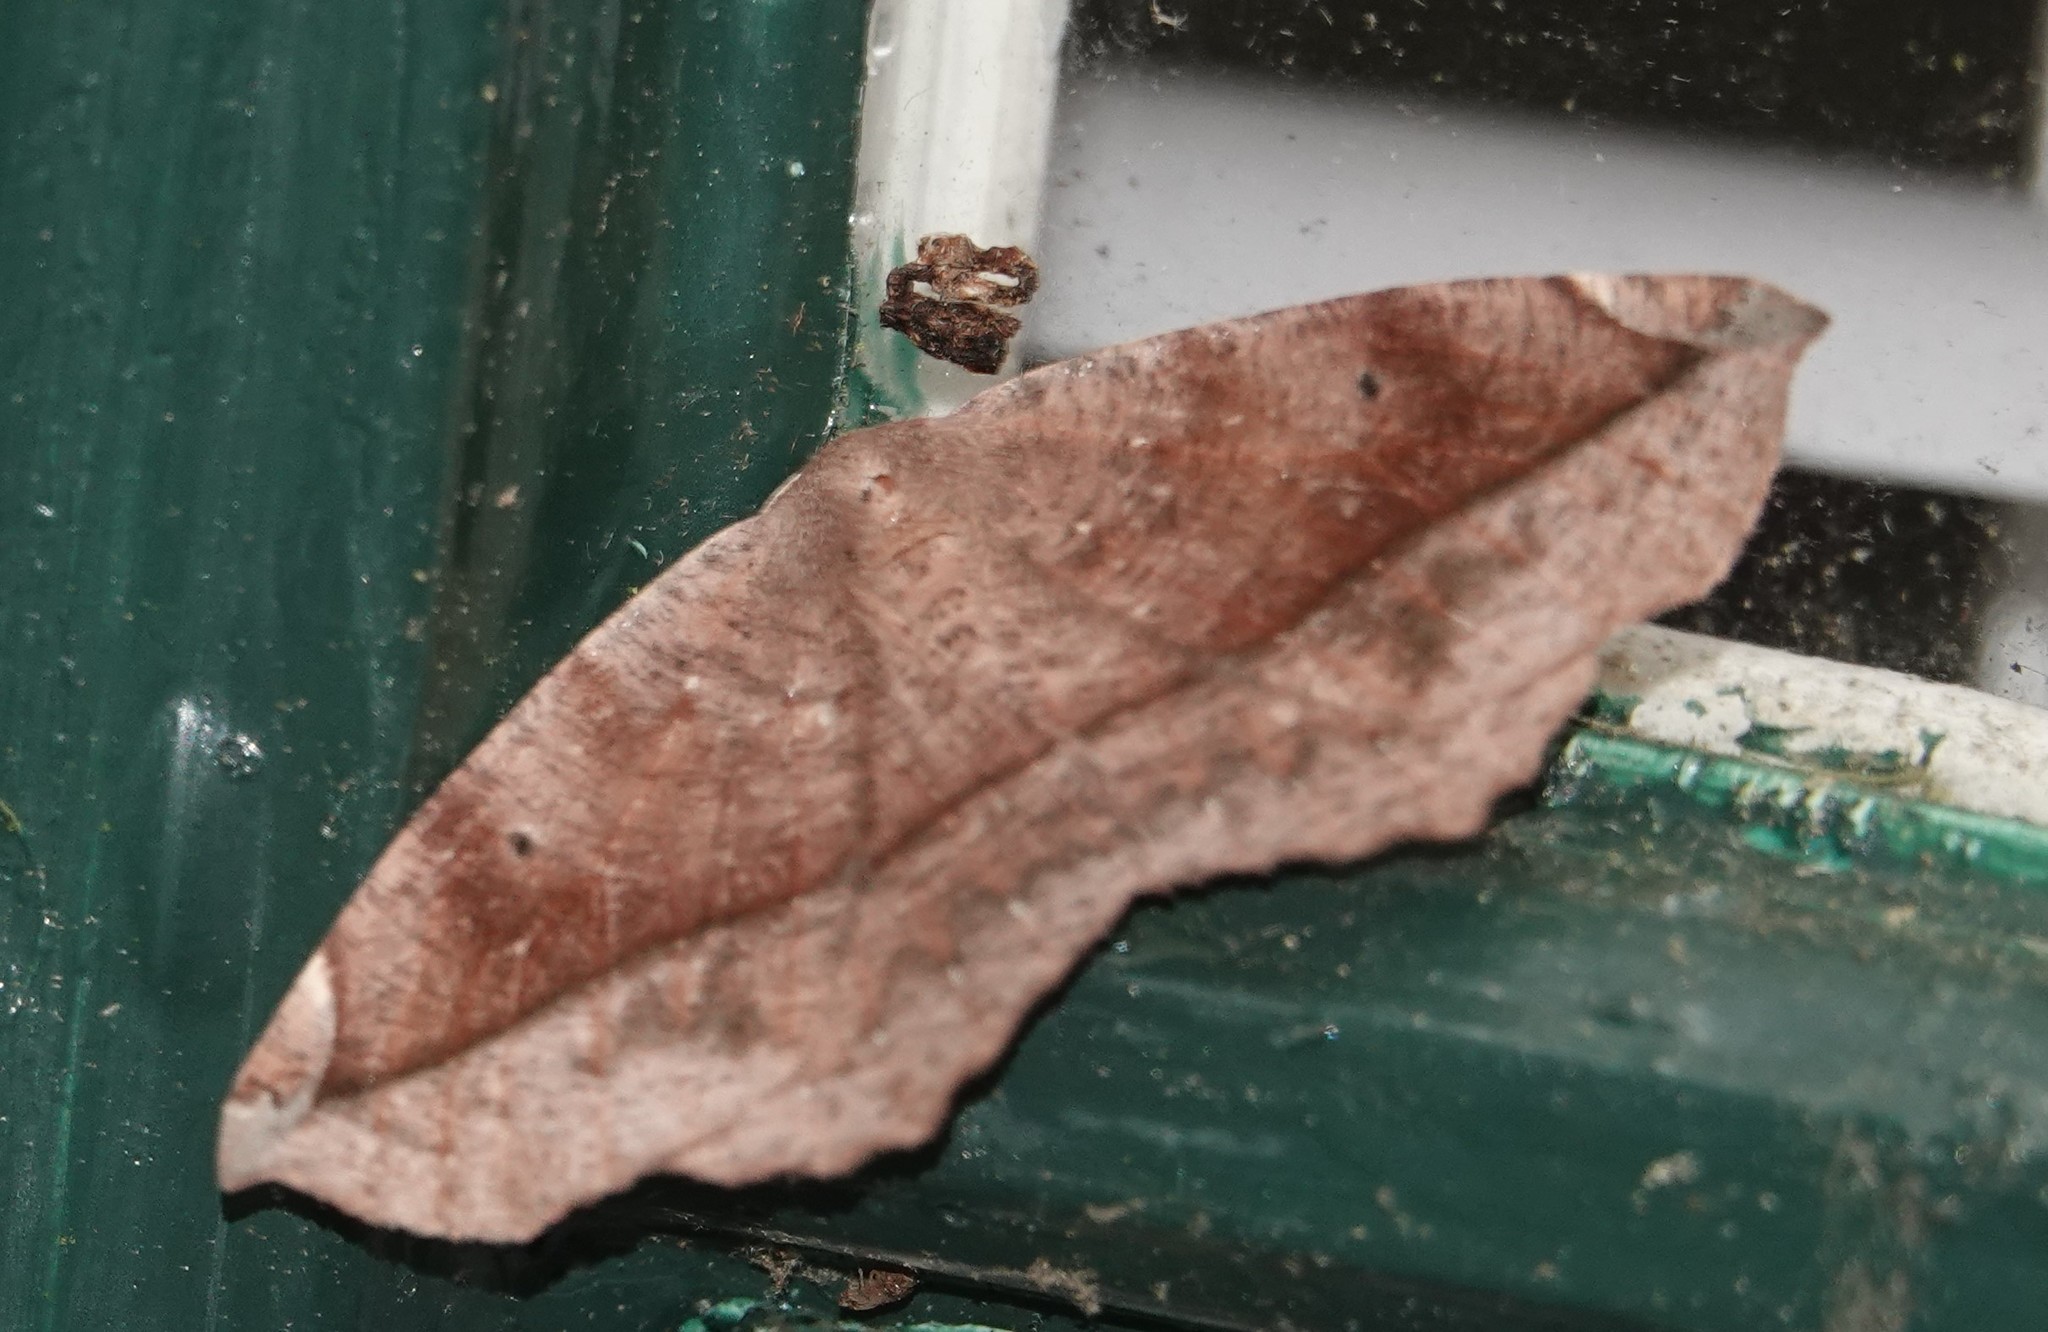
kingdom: Animalia
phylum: Arthropoda
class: Insecta
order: Lepidoptera
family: Geometridae
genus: Prochoerodes
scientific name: Prochoerodes lineola
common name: Large maple spanworm
